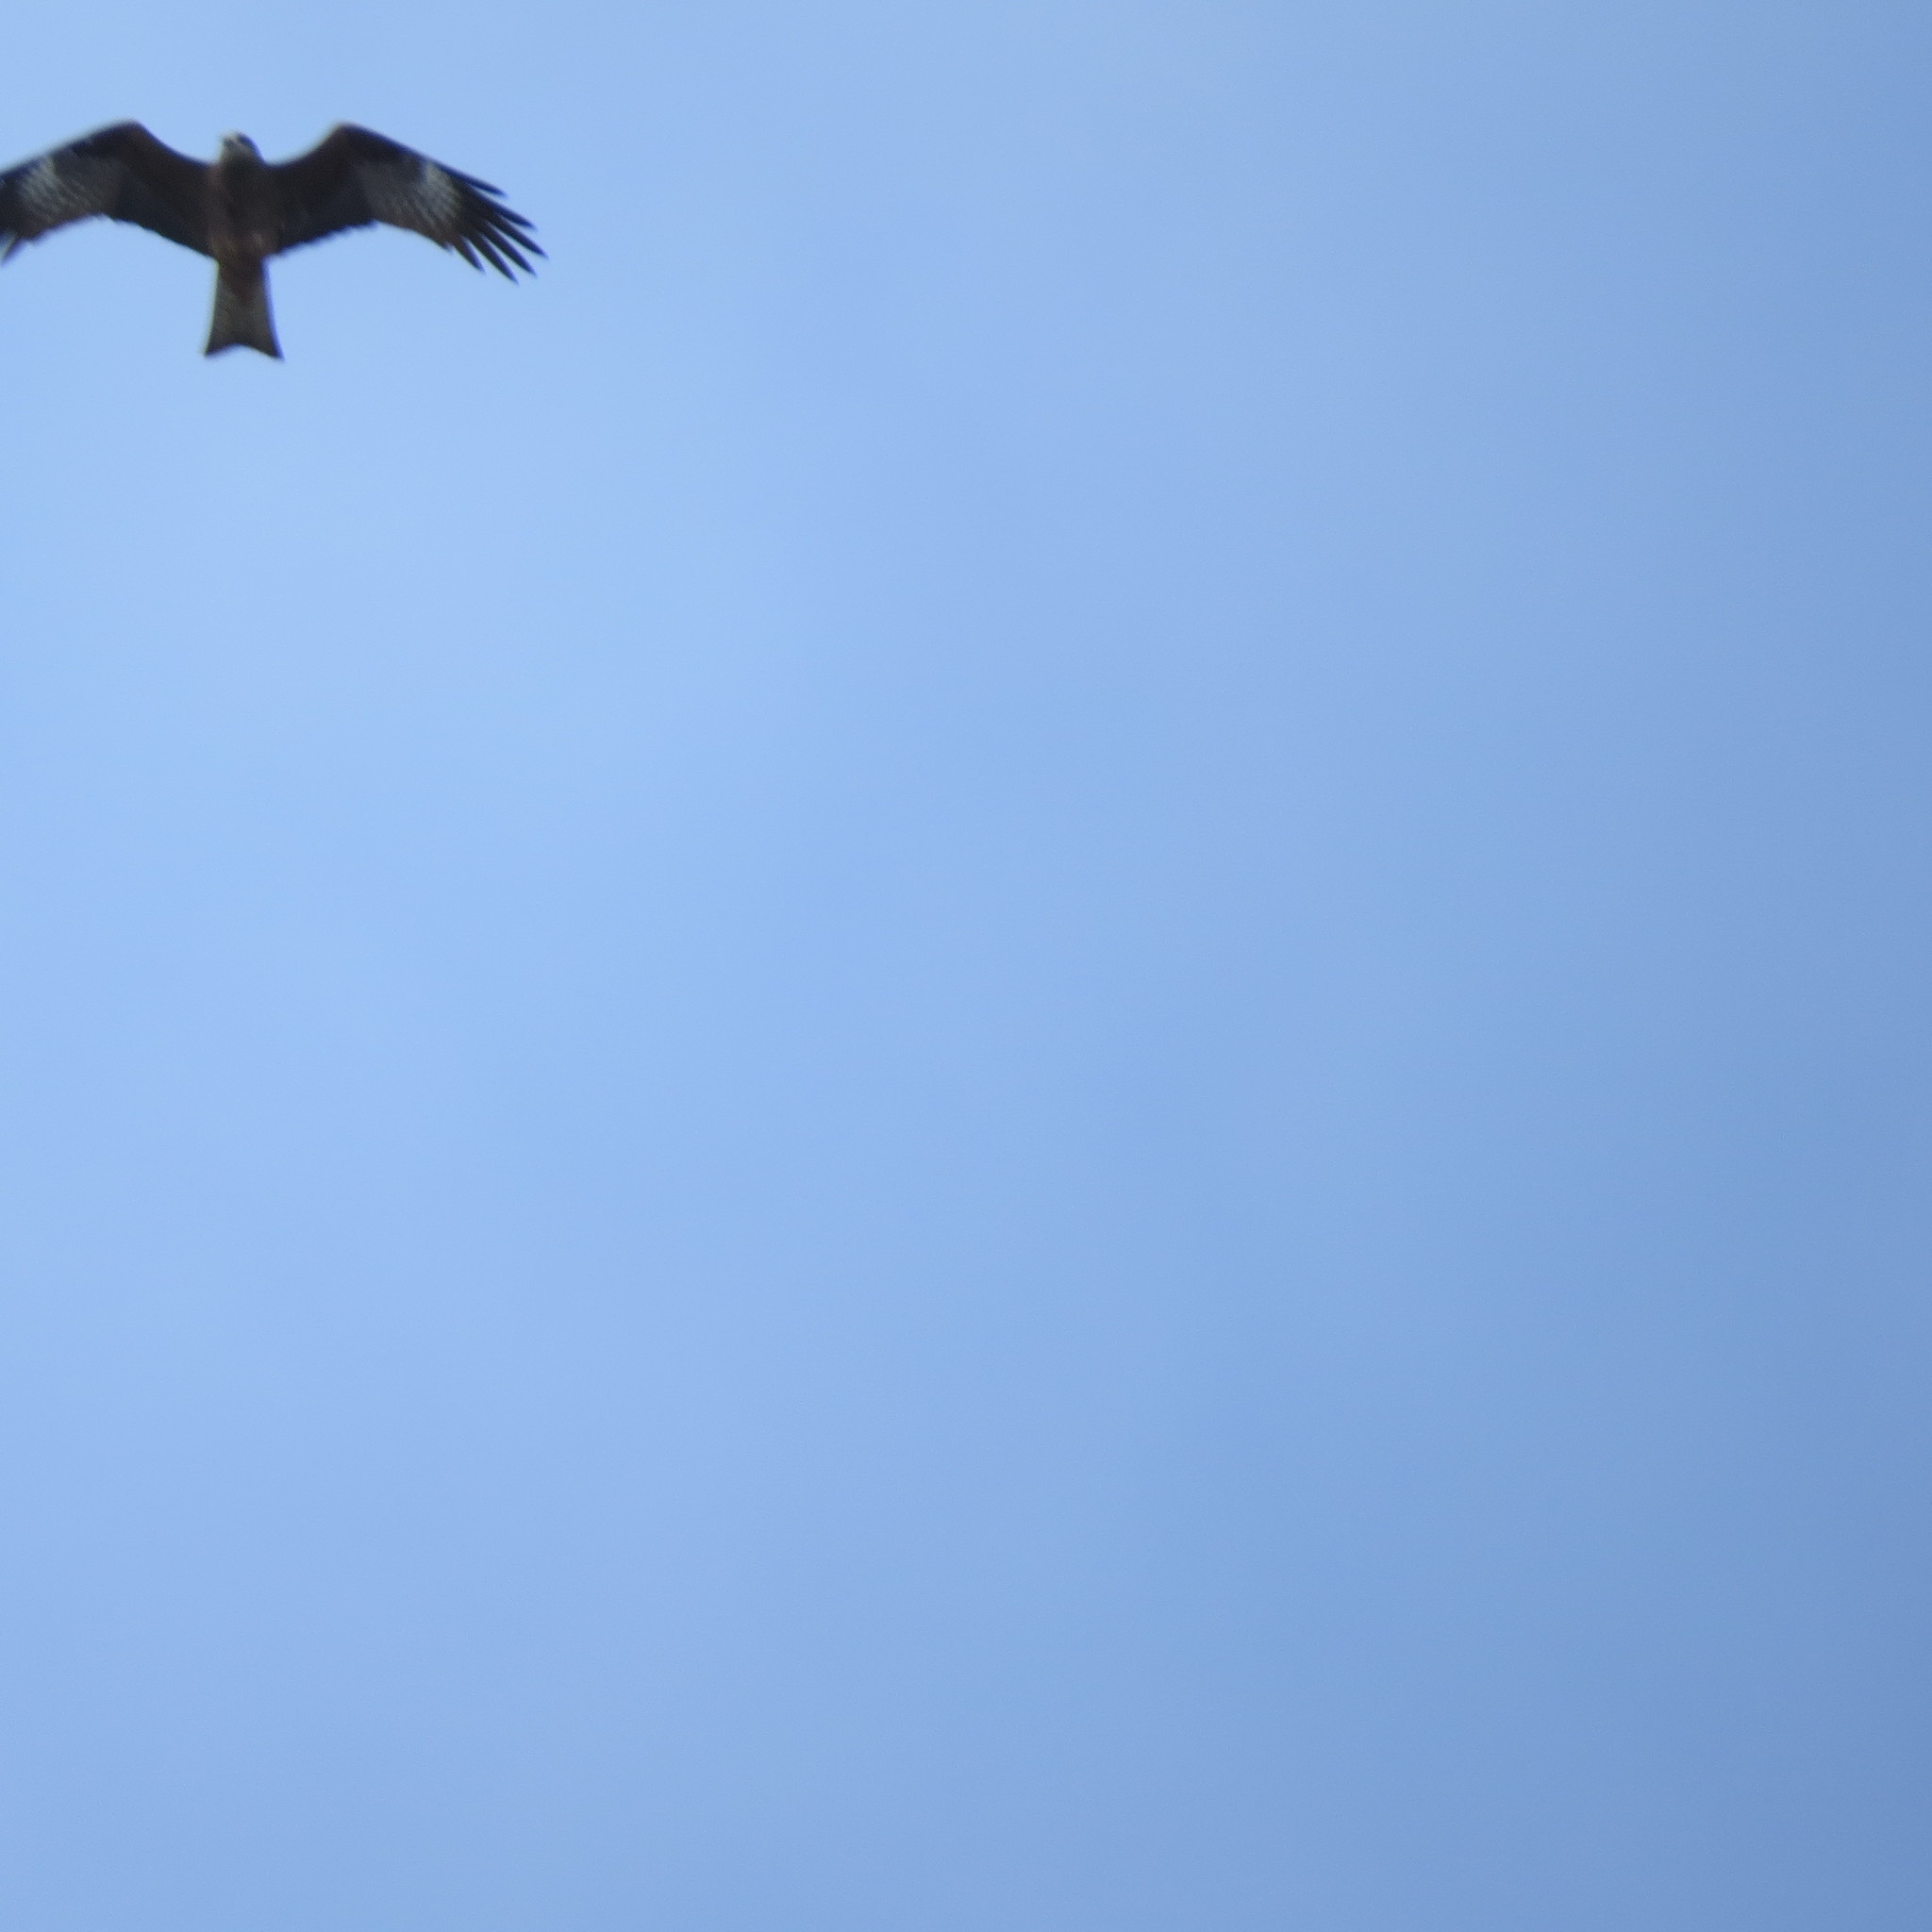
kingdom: Animalia
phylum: Chordata
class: Aves
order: Accipitriformes
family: Accipitridae
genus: Milvus
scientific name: Milvus migrans
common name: Black kite
